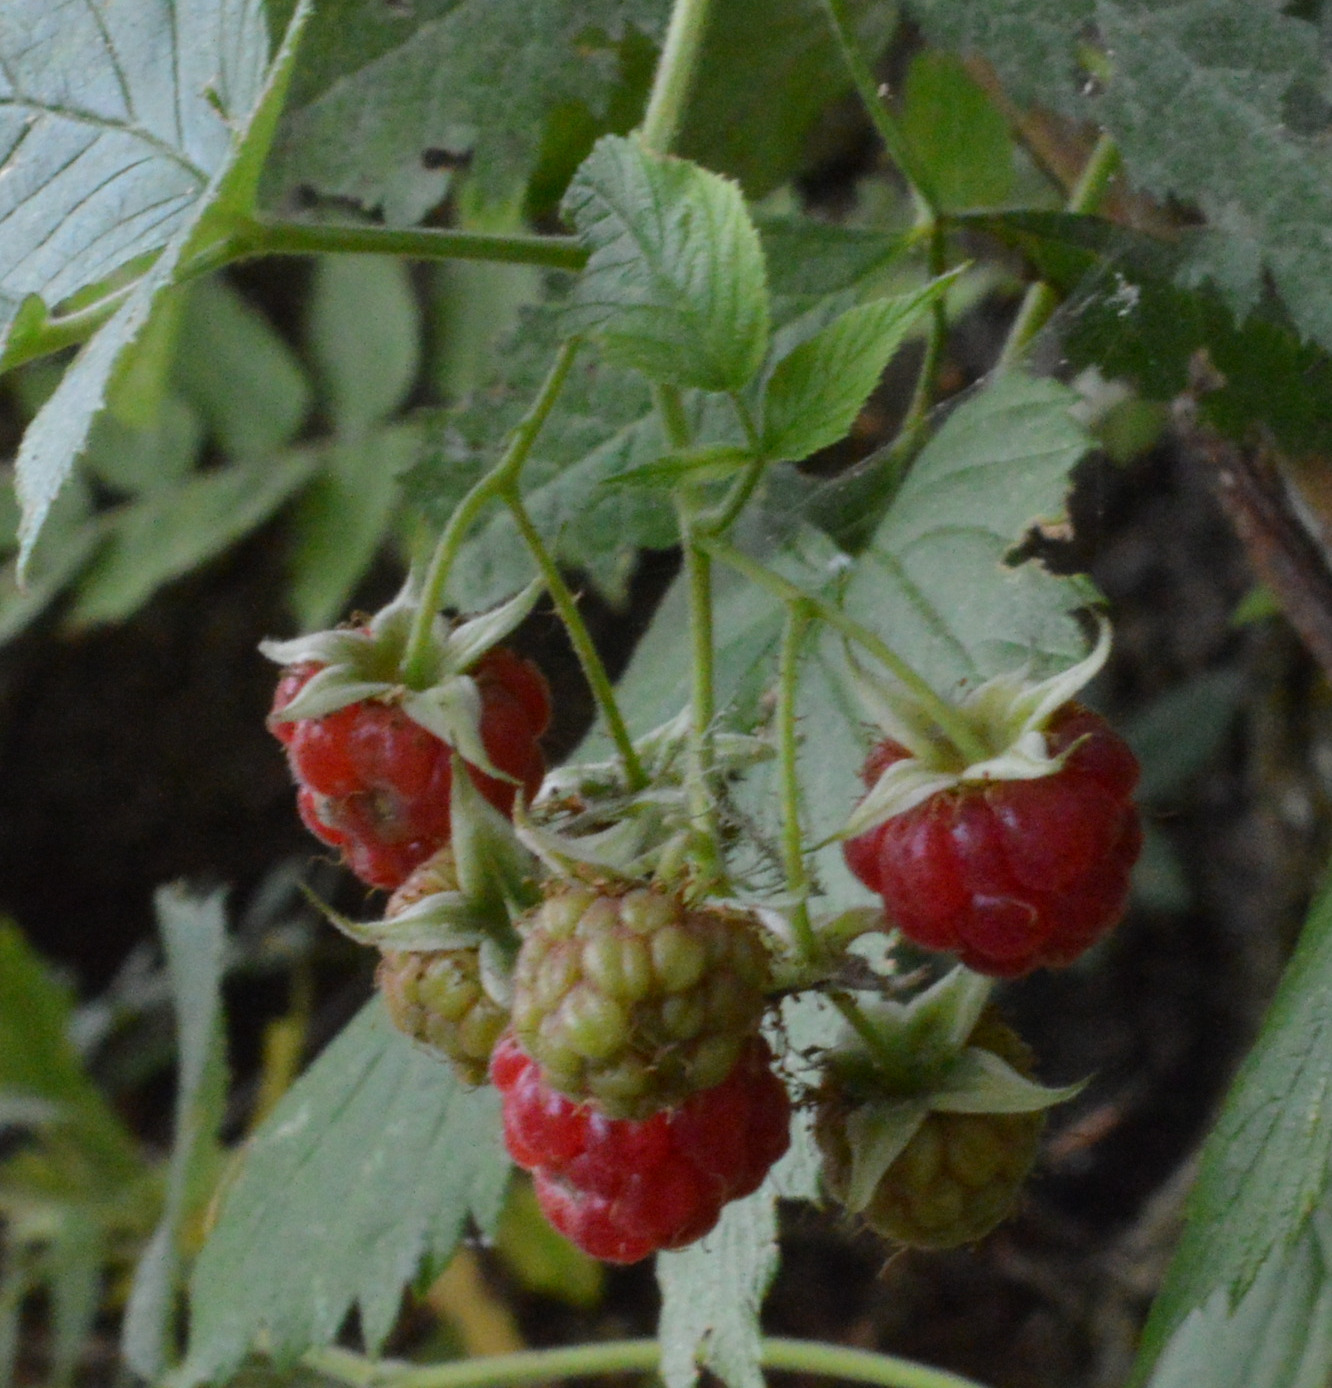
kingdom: Plantae
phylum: Tracheophyta
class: Magnoliopsida
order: Rosales
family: Rosaceae
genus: Rubus
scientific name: Rubus idaeus
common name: Raspberry
